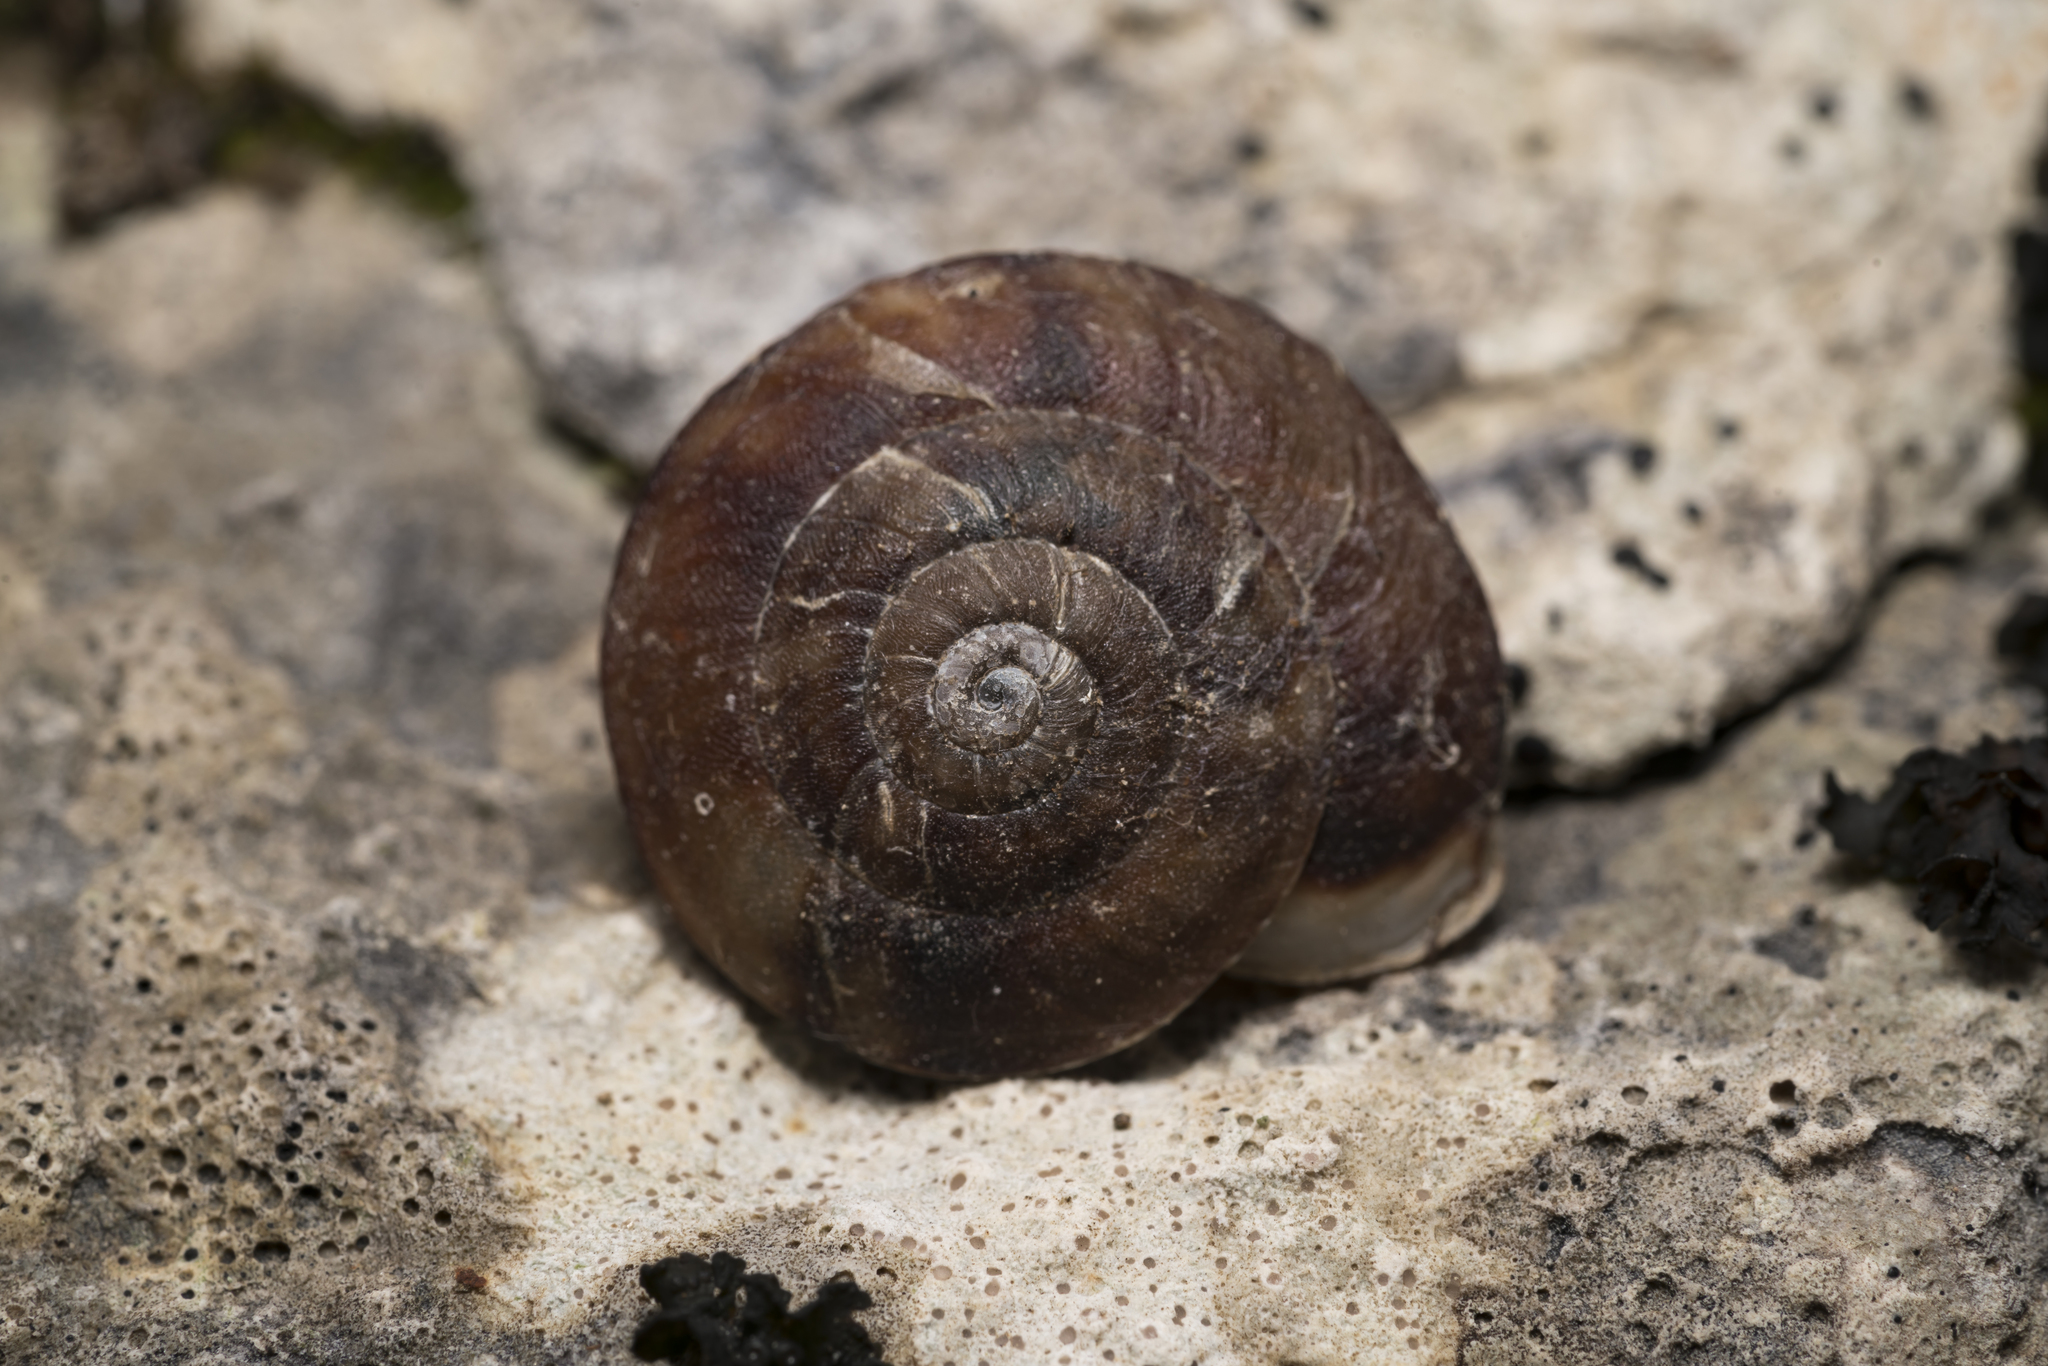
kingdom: Animalia
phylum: Mollusca
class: Gastropoda
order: Stylommatophora
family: Helicidae
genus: Helicigona
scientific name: Helicigona lapicida
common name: Lapidary snail
